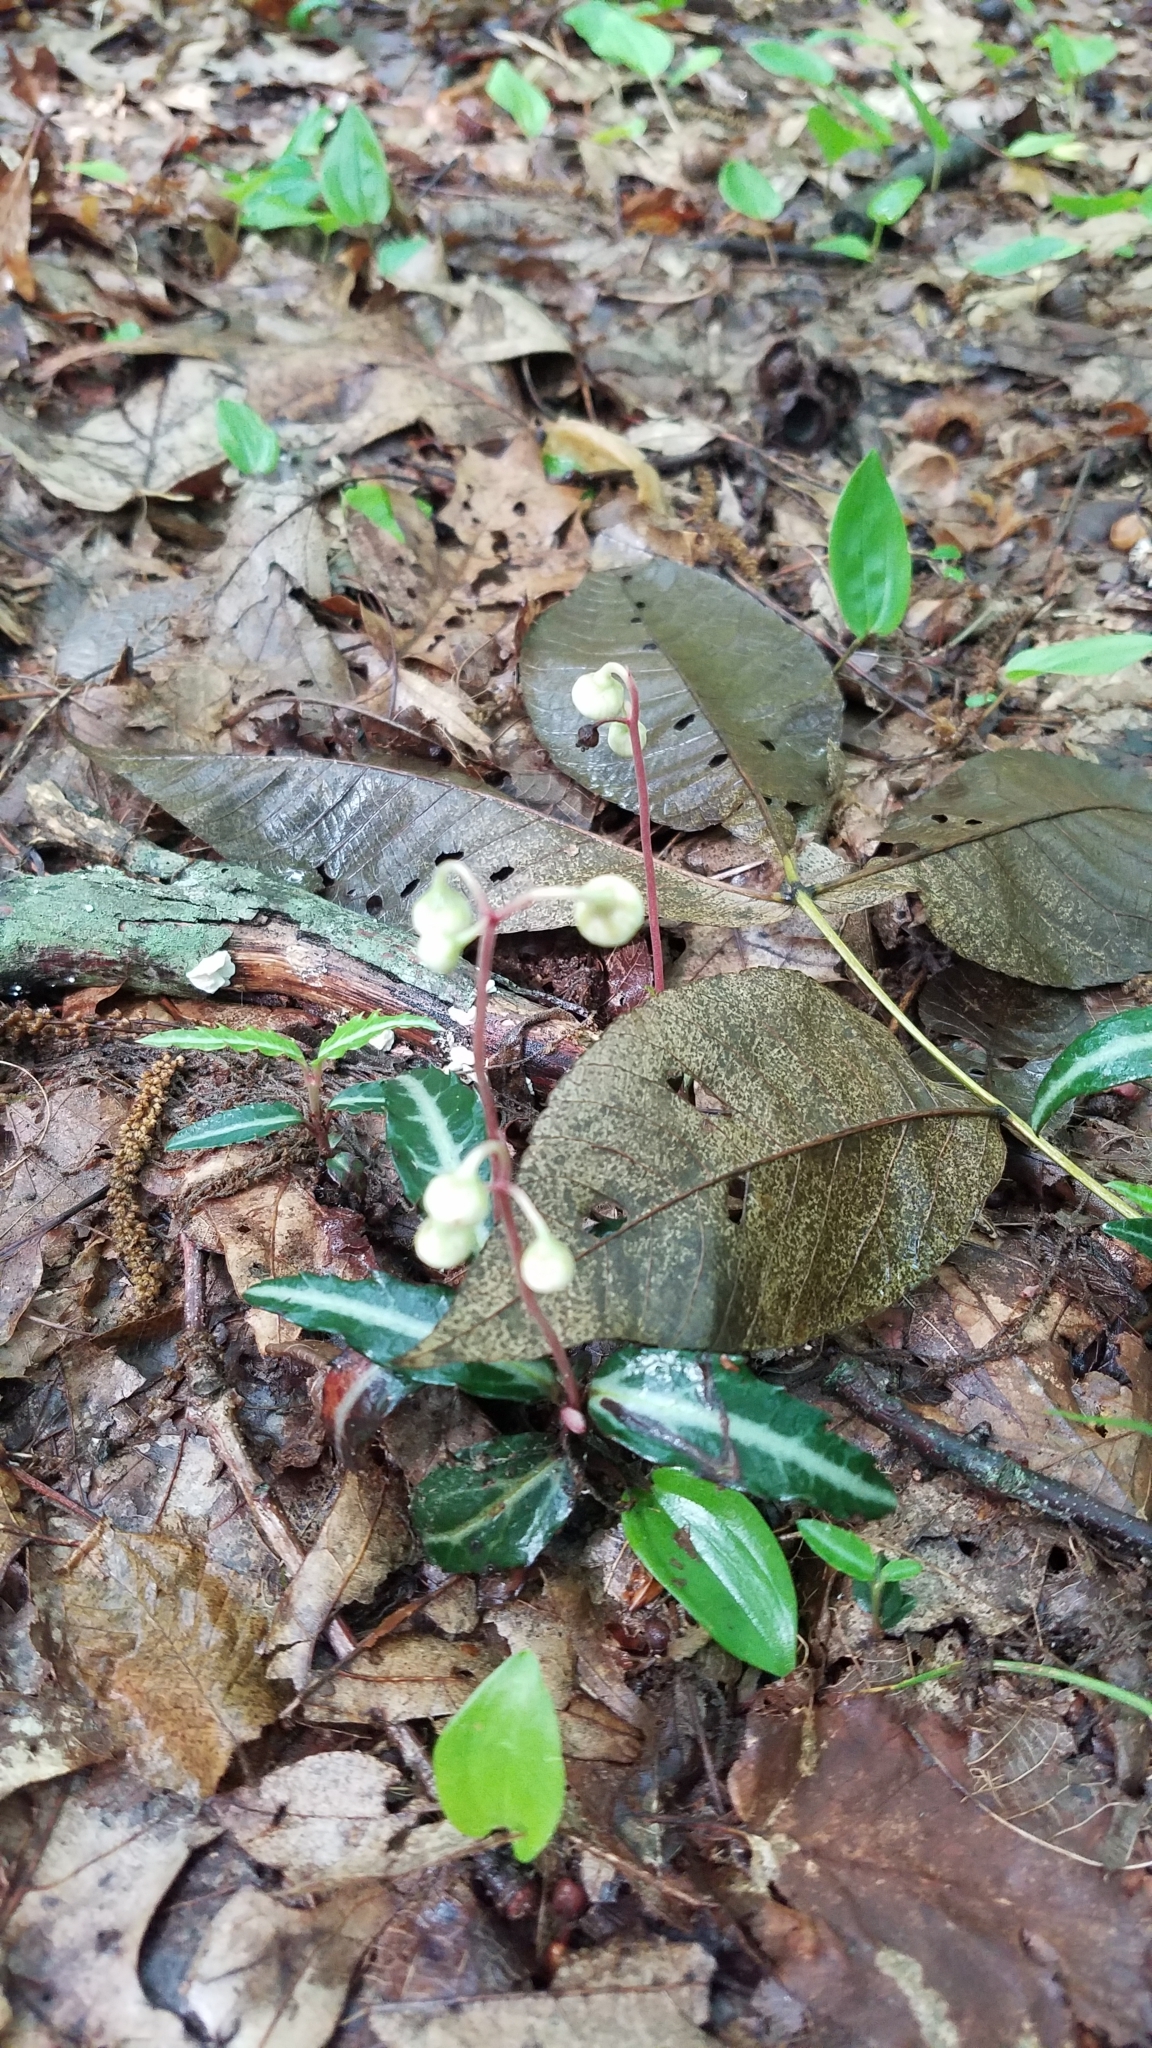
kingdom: Plantae
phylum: Tracheophyta
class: Magnoliopsida
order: Ericales
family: Ericaceae
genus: Chimaphila
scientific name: Chimaphila maculata
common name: Spotted pipsissewa
